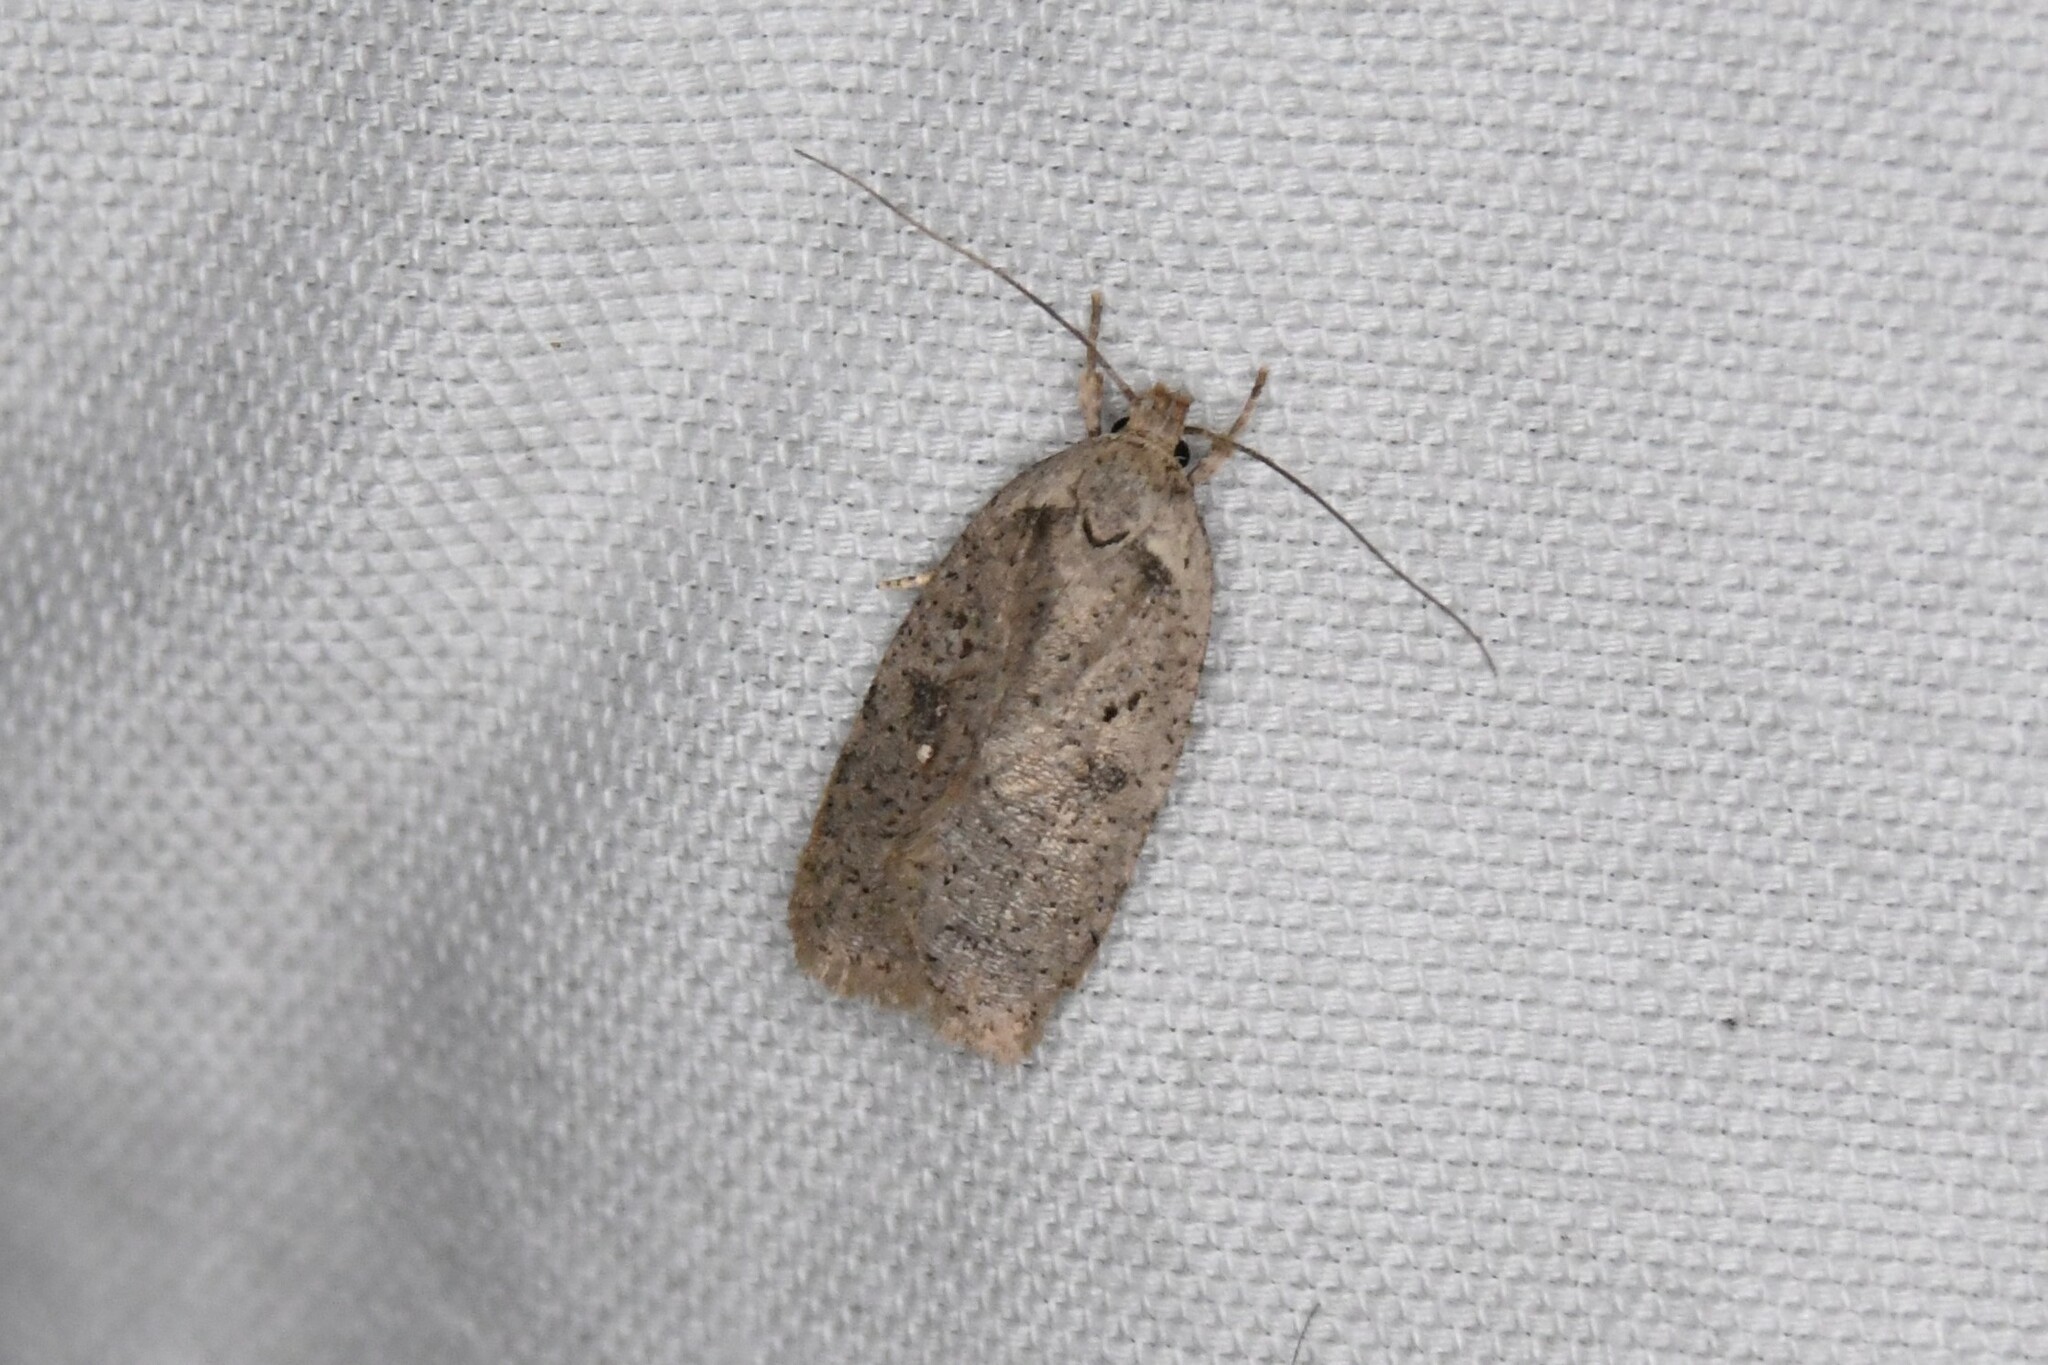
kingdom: Animalia
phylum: Arthropoda
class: Insecta
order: Lepidoptera
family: Depressariidae
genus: Agonopterix
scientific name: Agonopterix argillacea
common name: Clay-colored agonopterix moth
